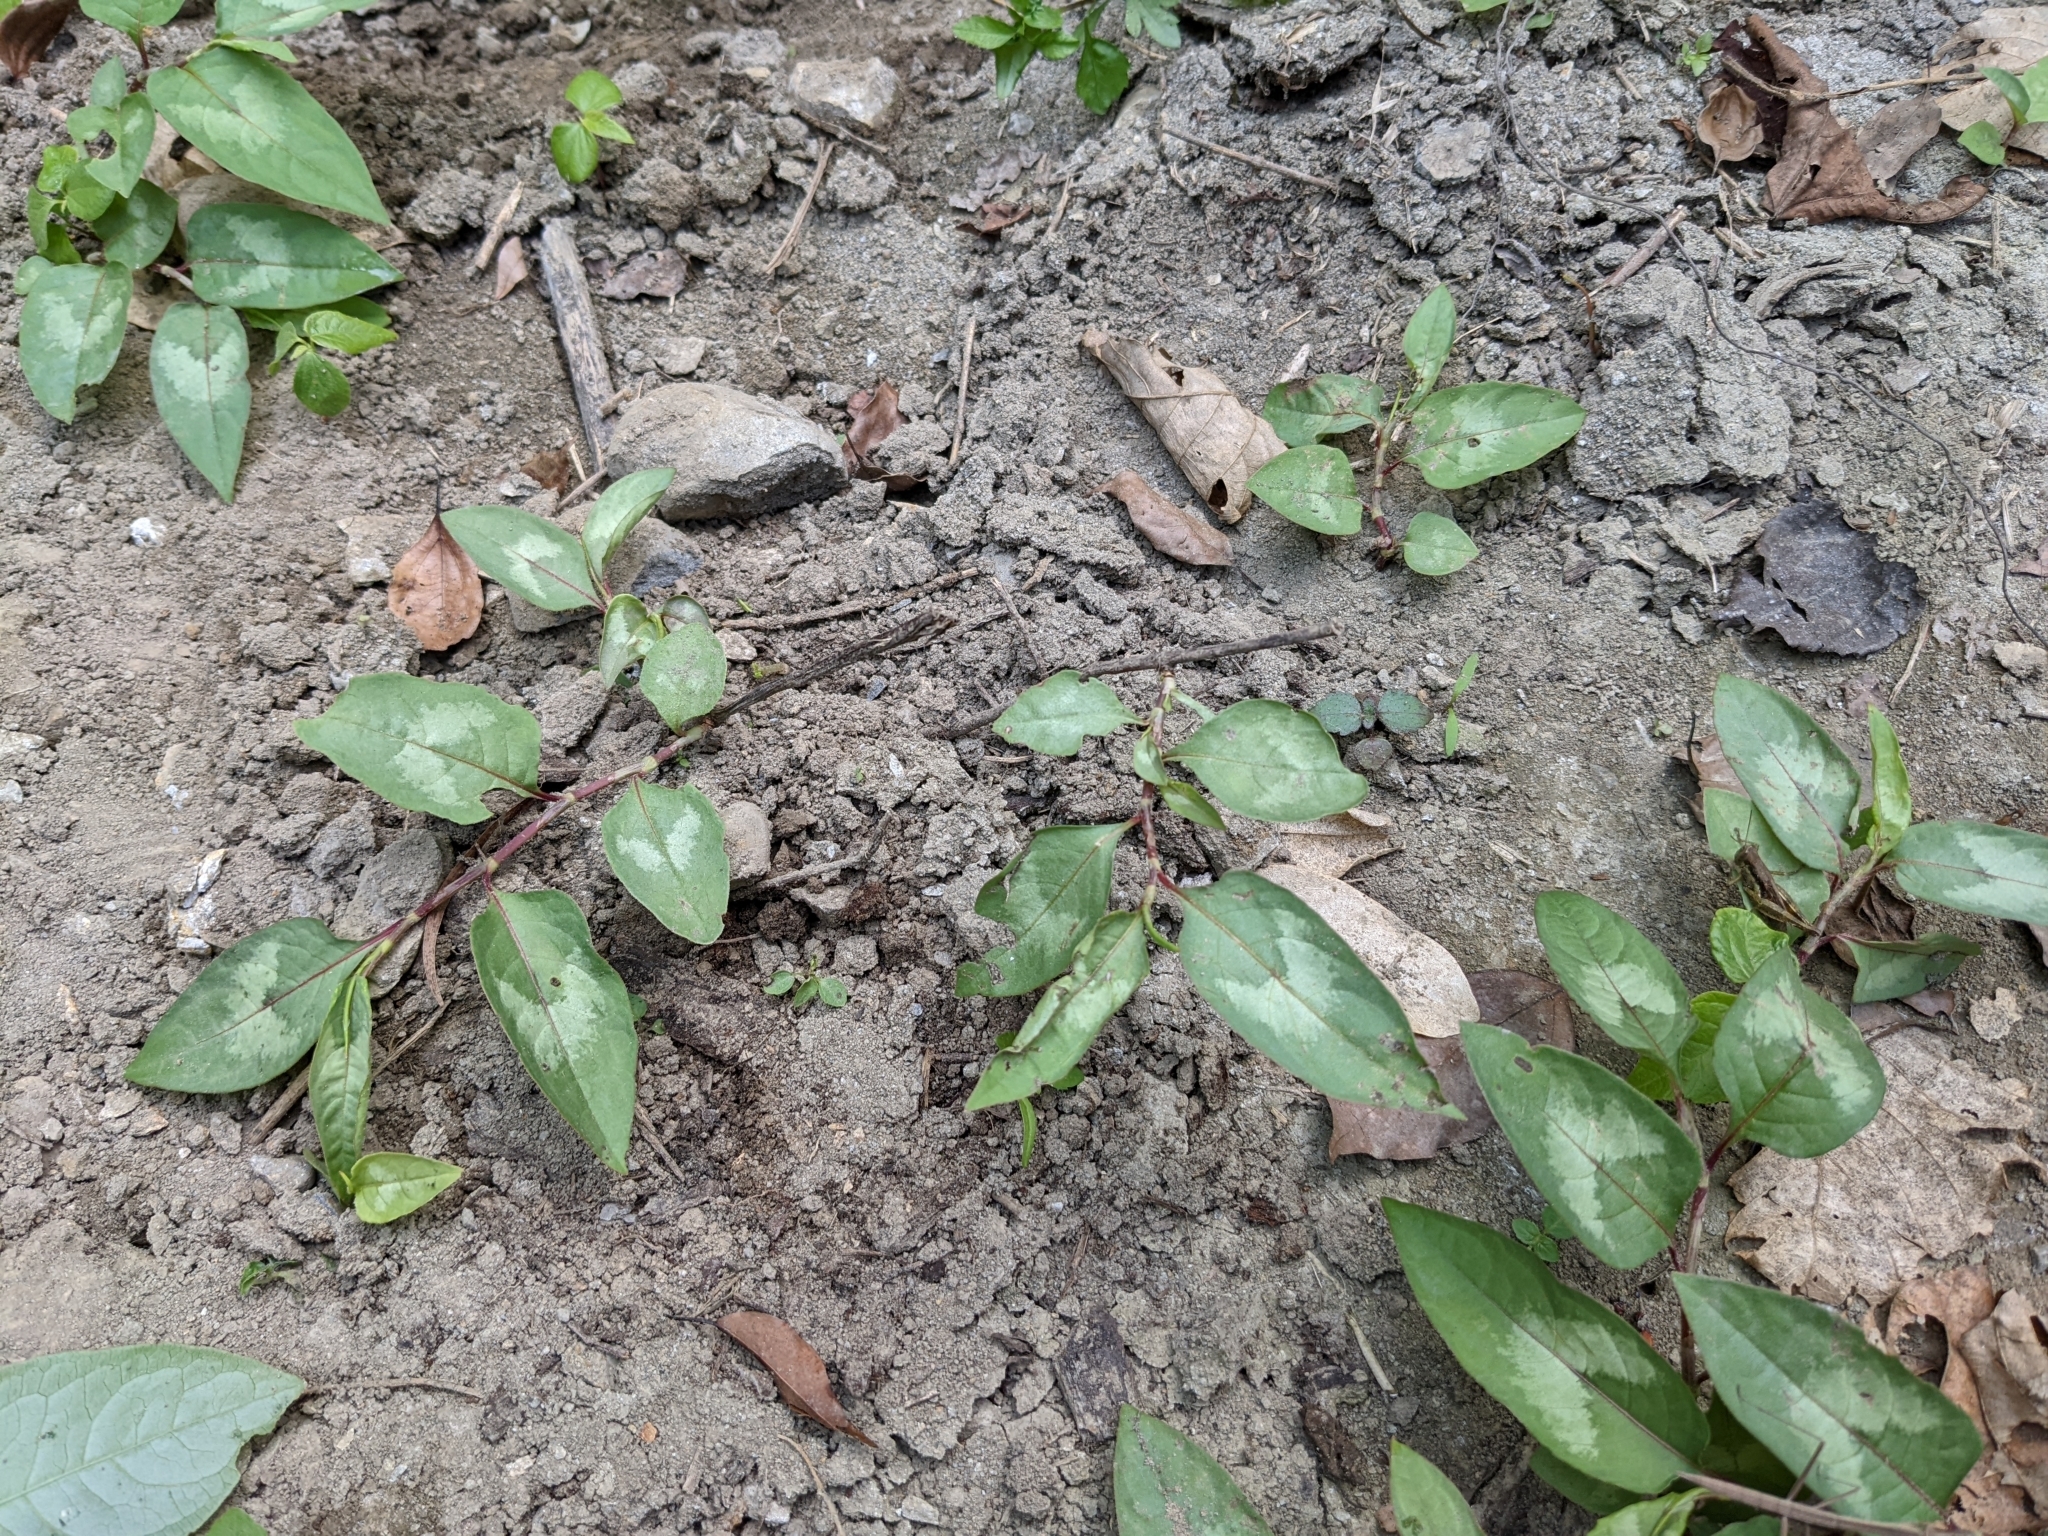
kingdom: Plantae
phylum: Tracheophyta
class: Magnoliopsida
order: Caryophyllales
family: Polygonaceae
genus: Persicaria
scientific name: Persicaria chinensis
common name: Chinese knotweed
